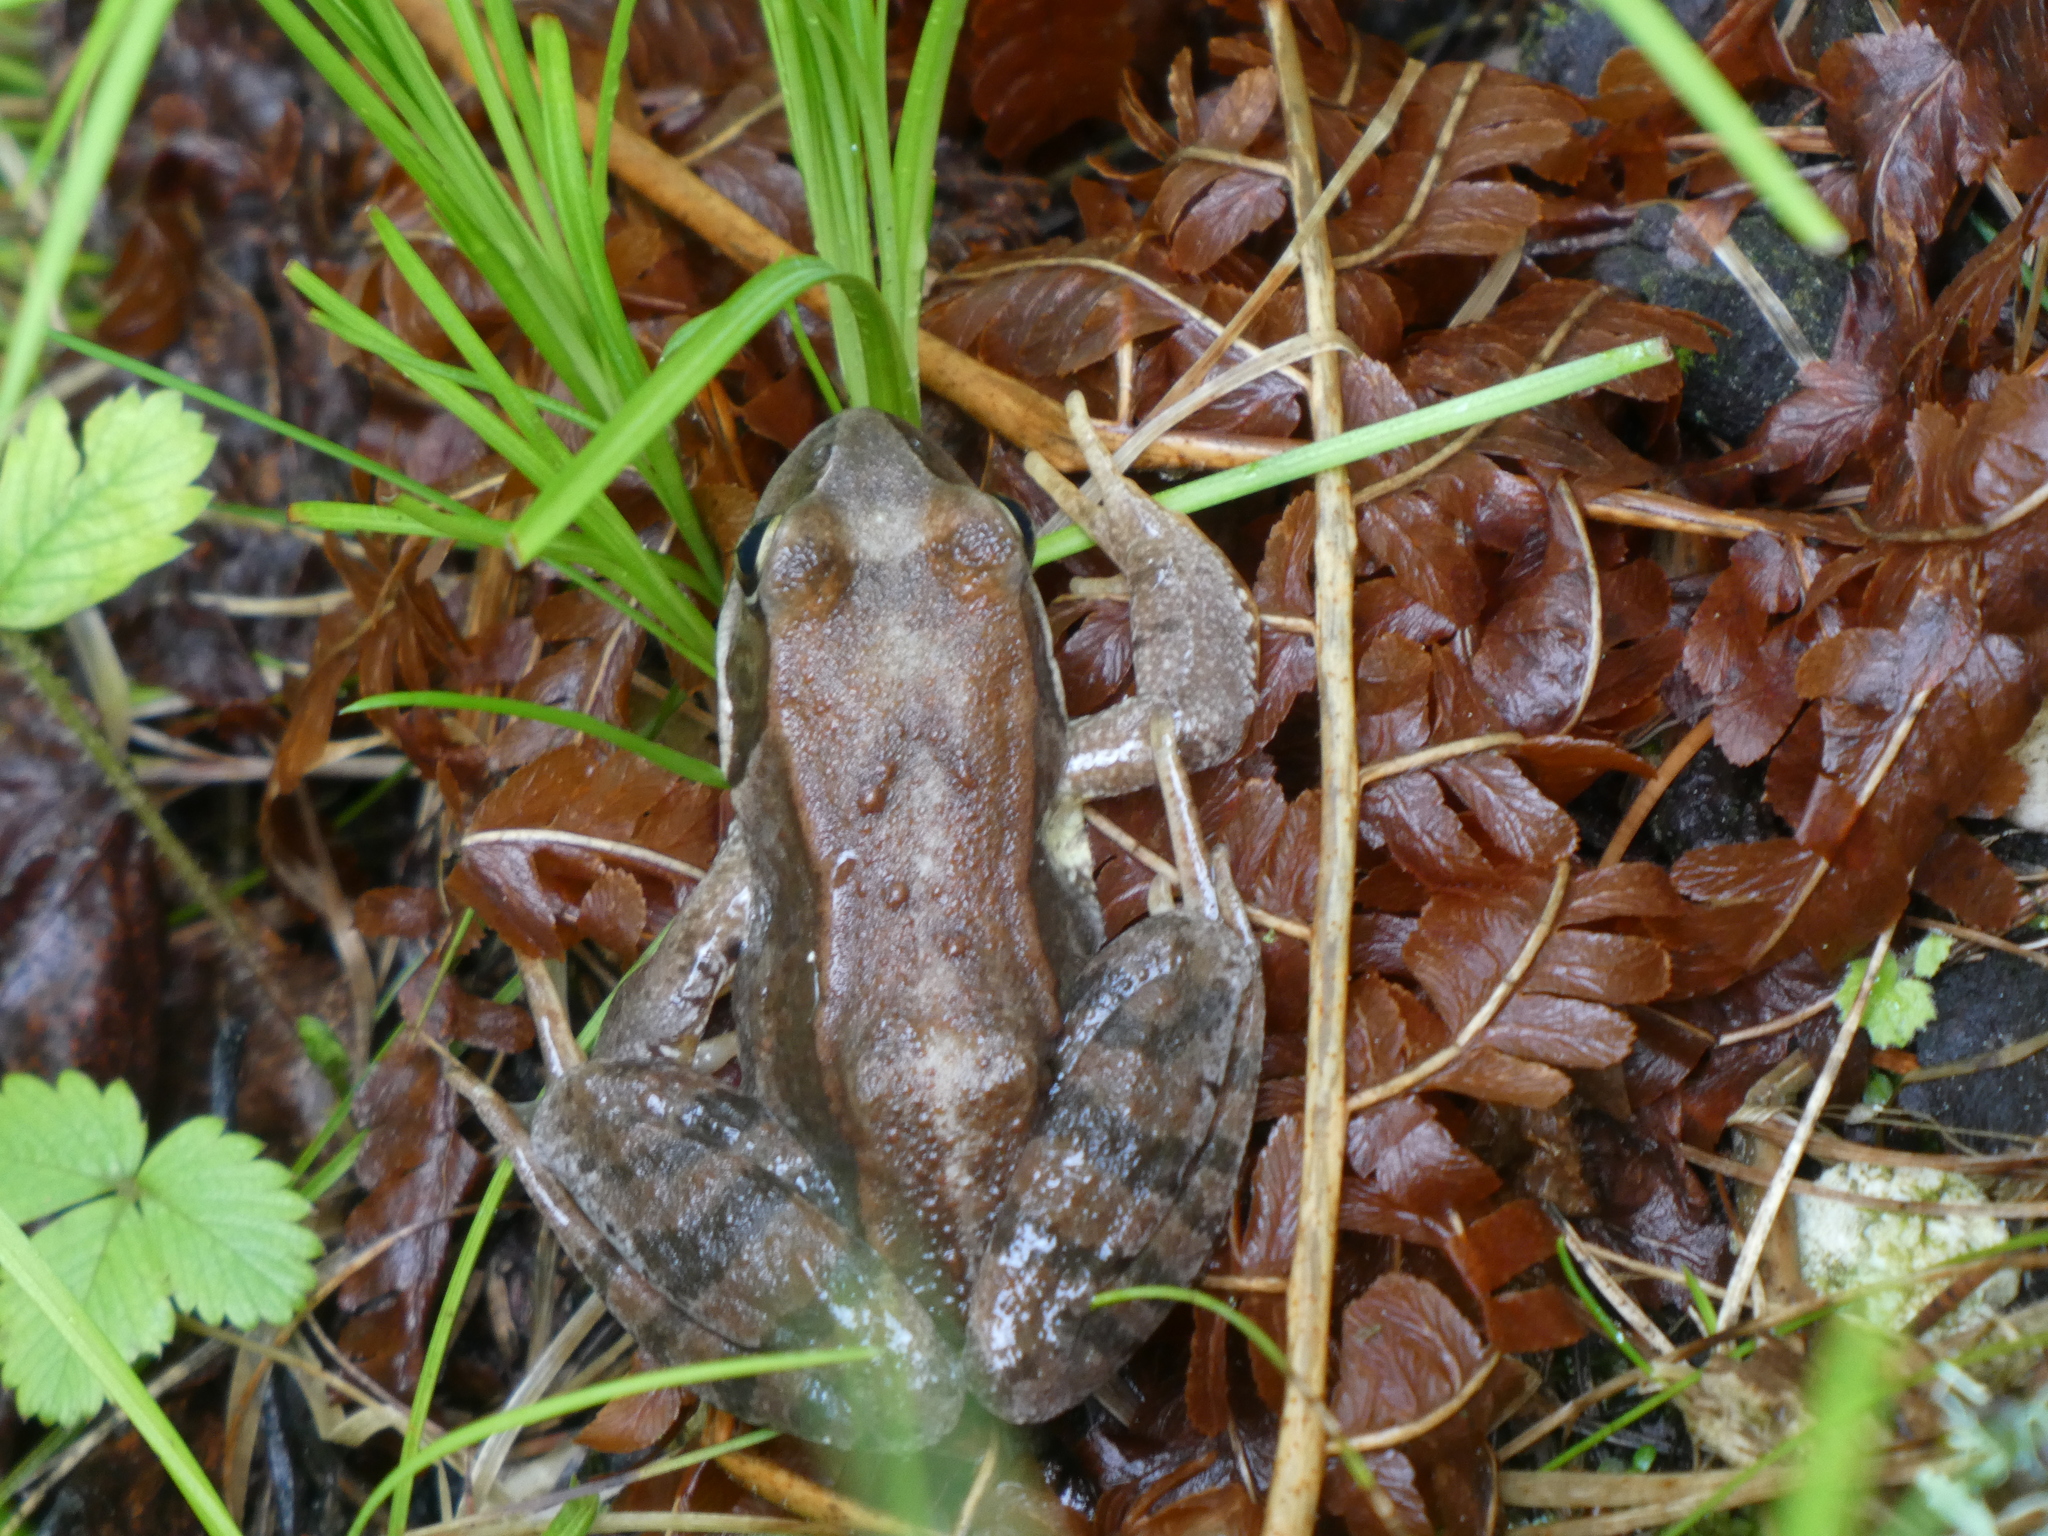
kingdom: Animalia
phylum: Chordata
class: Amphibia
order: Anura
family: Ranidae
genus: Rana
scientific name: Rana temporaria
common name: Common frog
